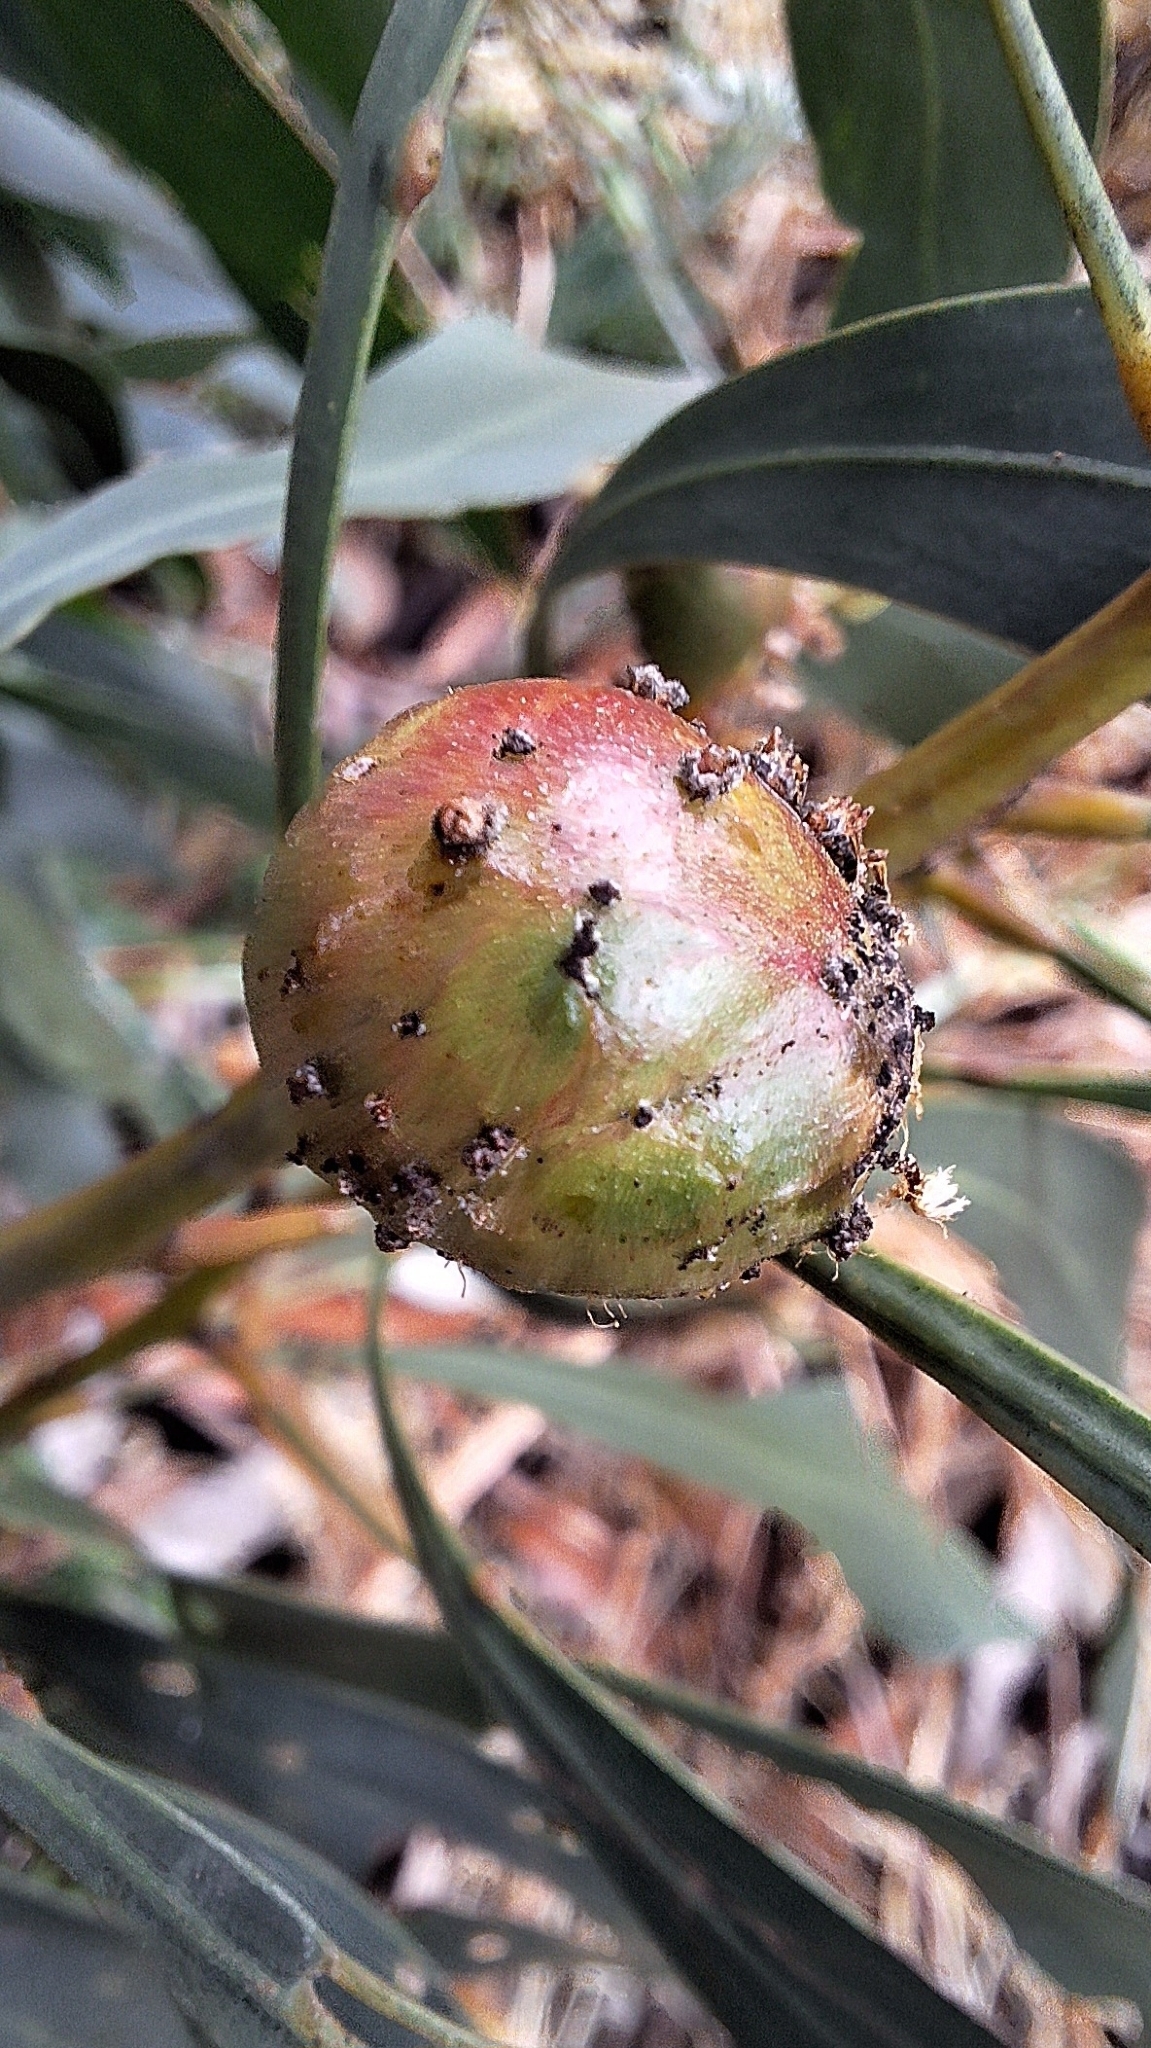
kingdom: Animalia
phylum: Arthropoda
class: Insecta
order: Hymenoptera
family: Pteromalidae
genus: Trichilogaster
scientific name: Trichilogaster signiventris
